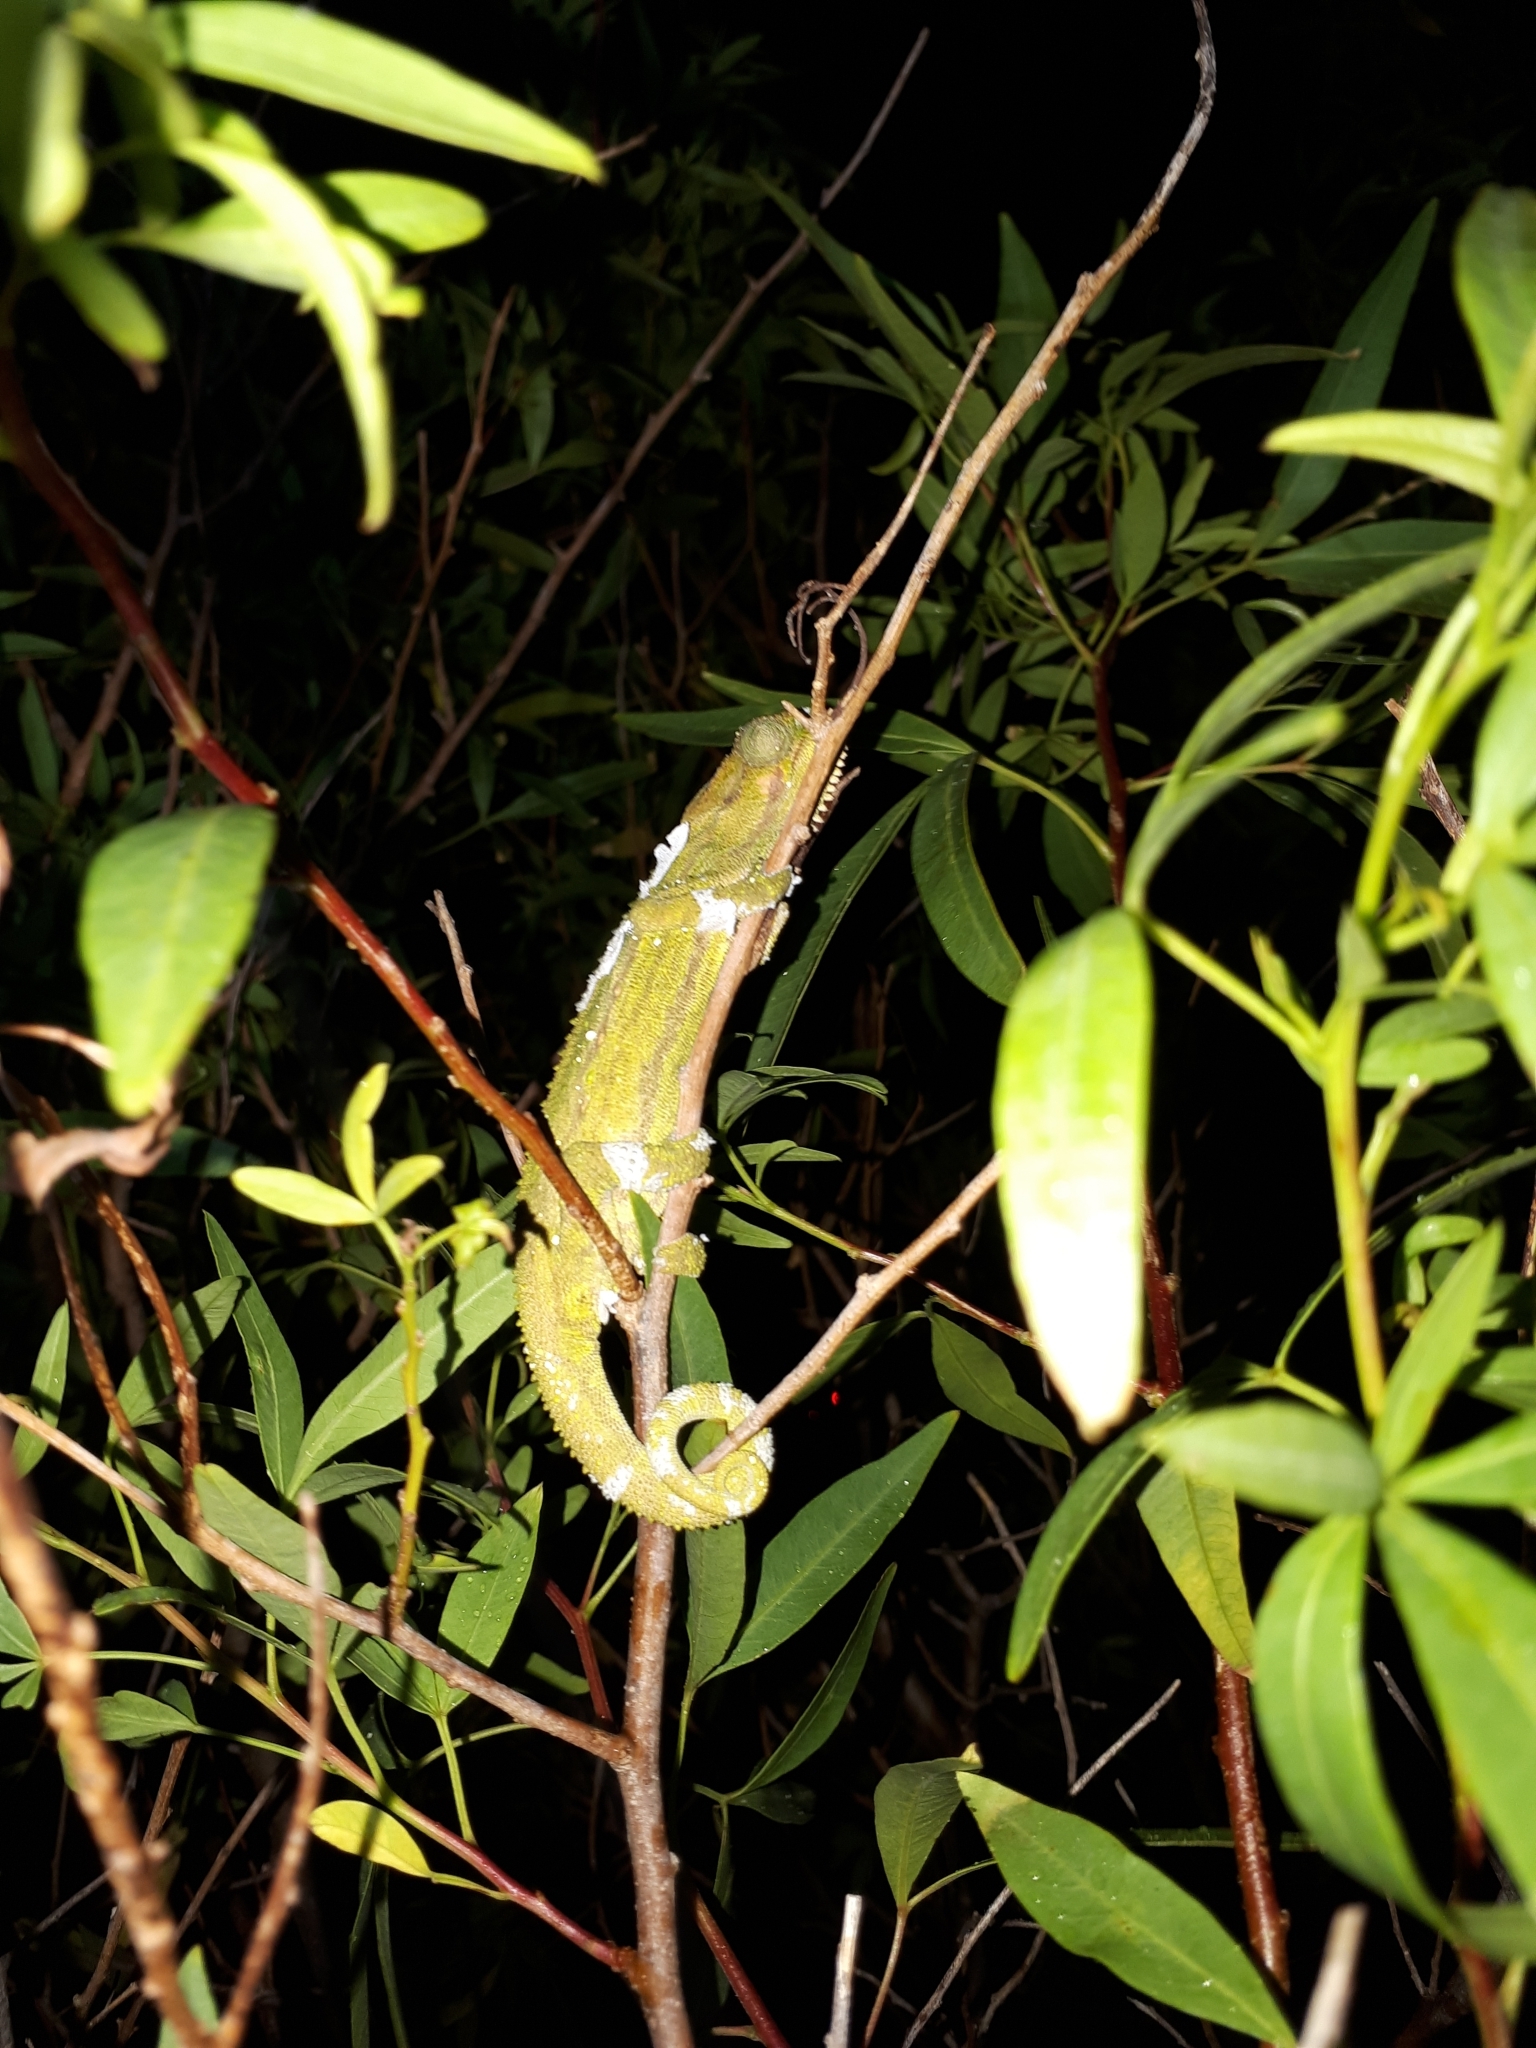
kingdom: Animalia
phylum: Chordata
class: Squamata
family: Chamaeleonidae
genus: Bradypodion
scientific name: Bradypodion pumilum
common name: Cape dwarf chameleon
